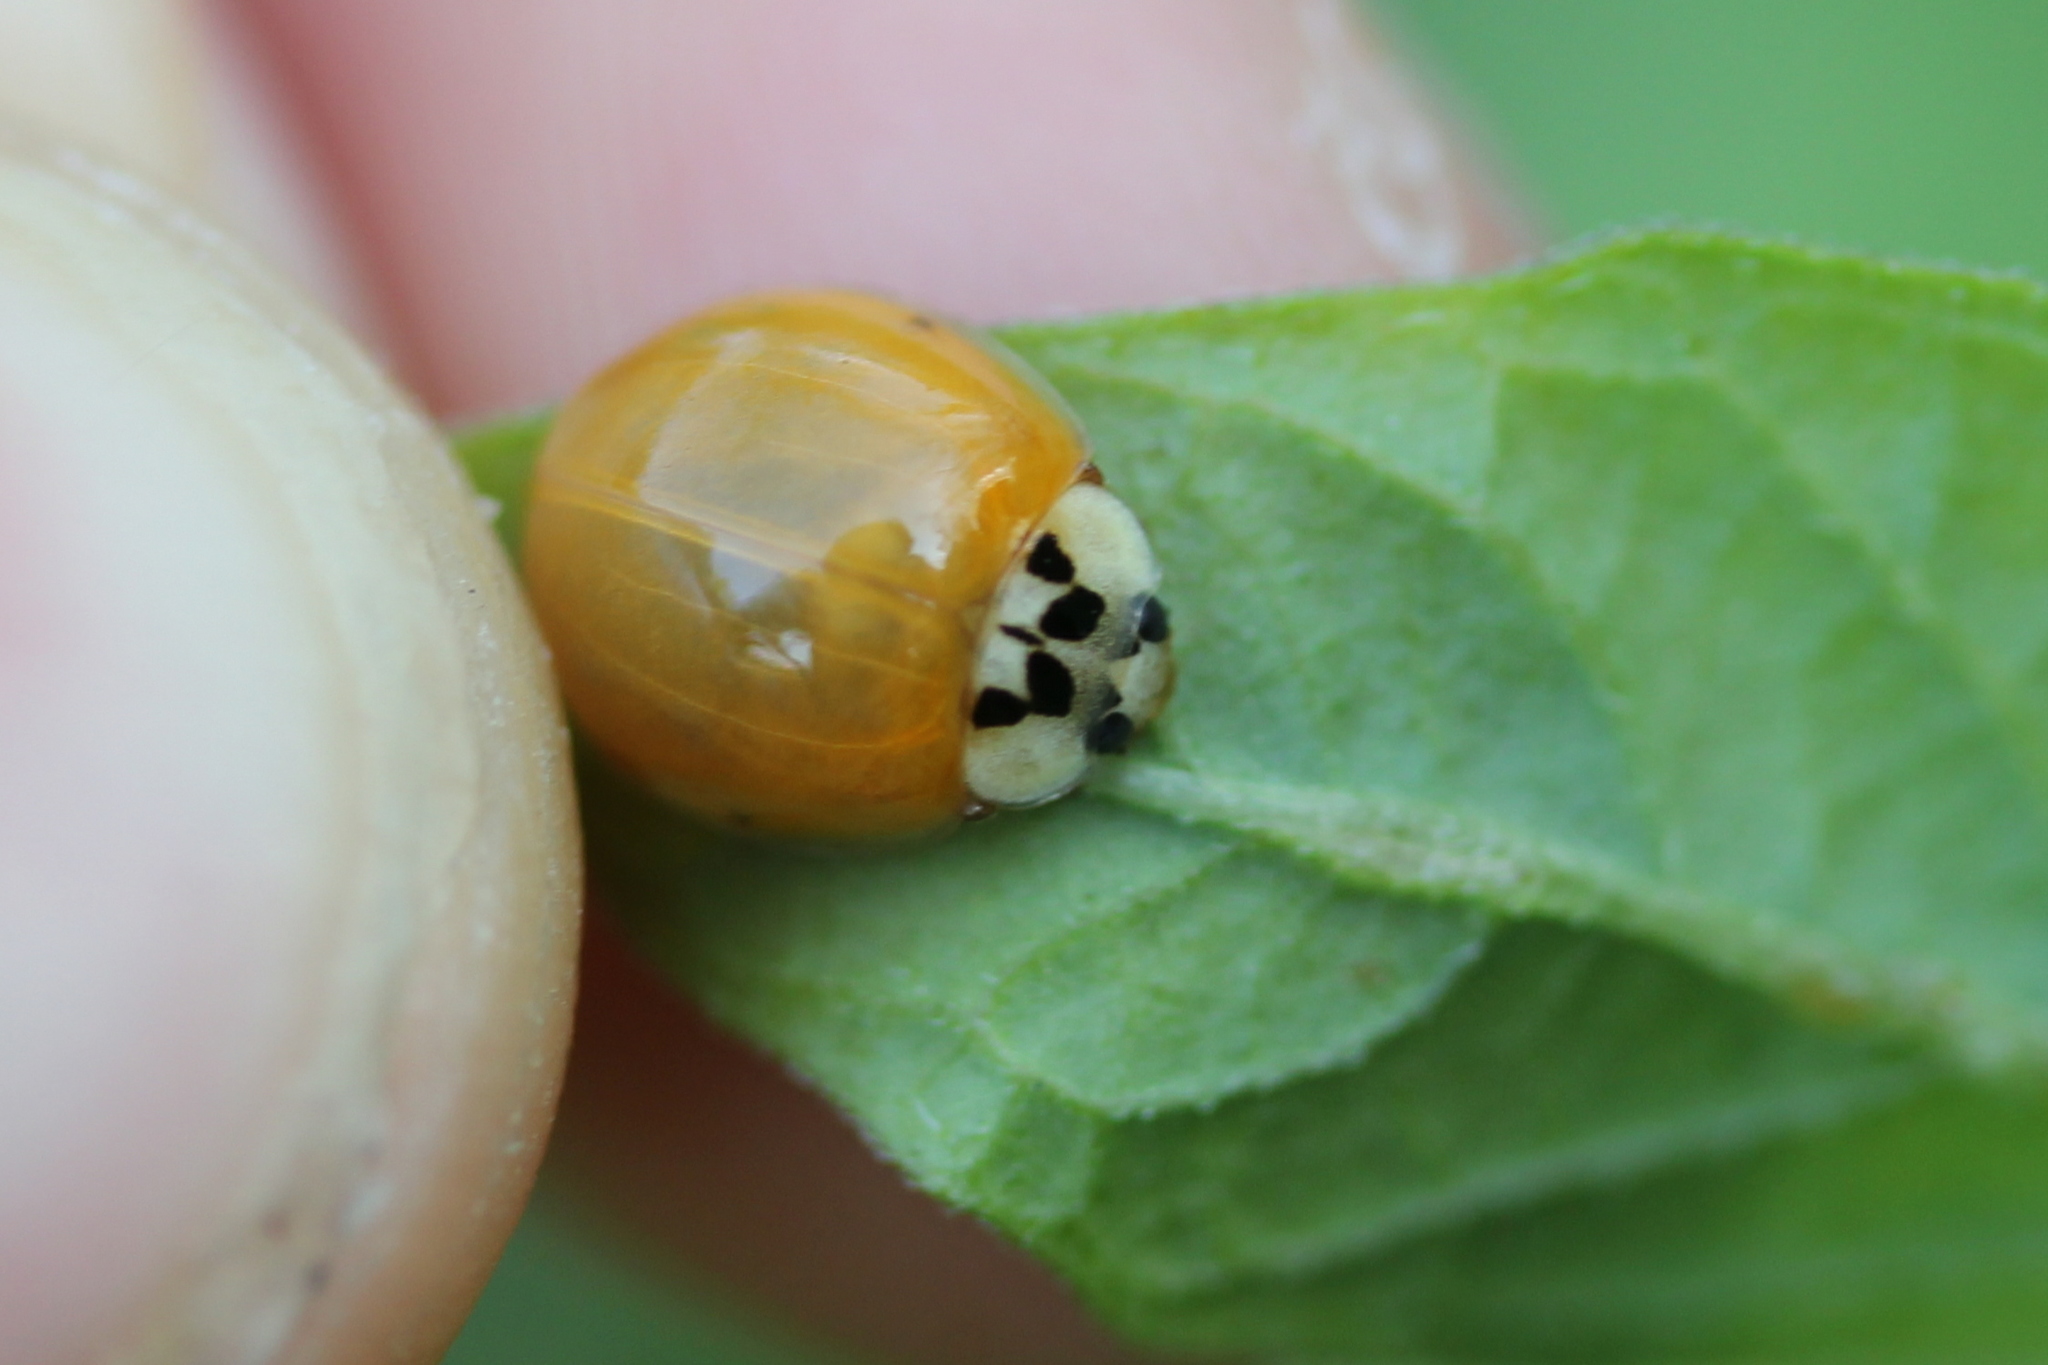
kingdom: Animalia
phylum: Arthropoda
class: Insecta
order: Coleoptera
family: Coccinellidae
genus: Harmonia
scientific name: Harmonia axyridis
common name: Harlequin ladybird
